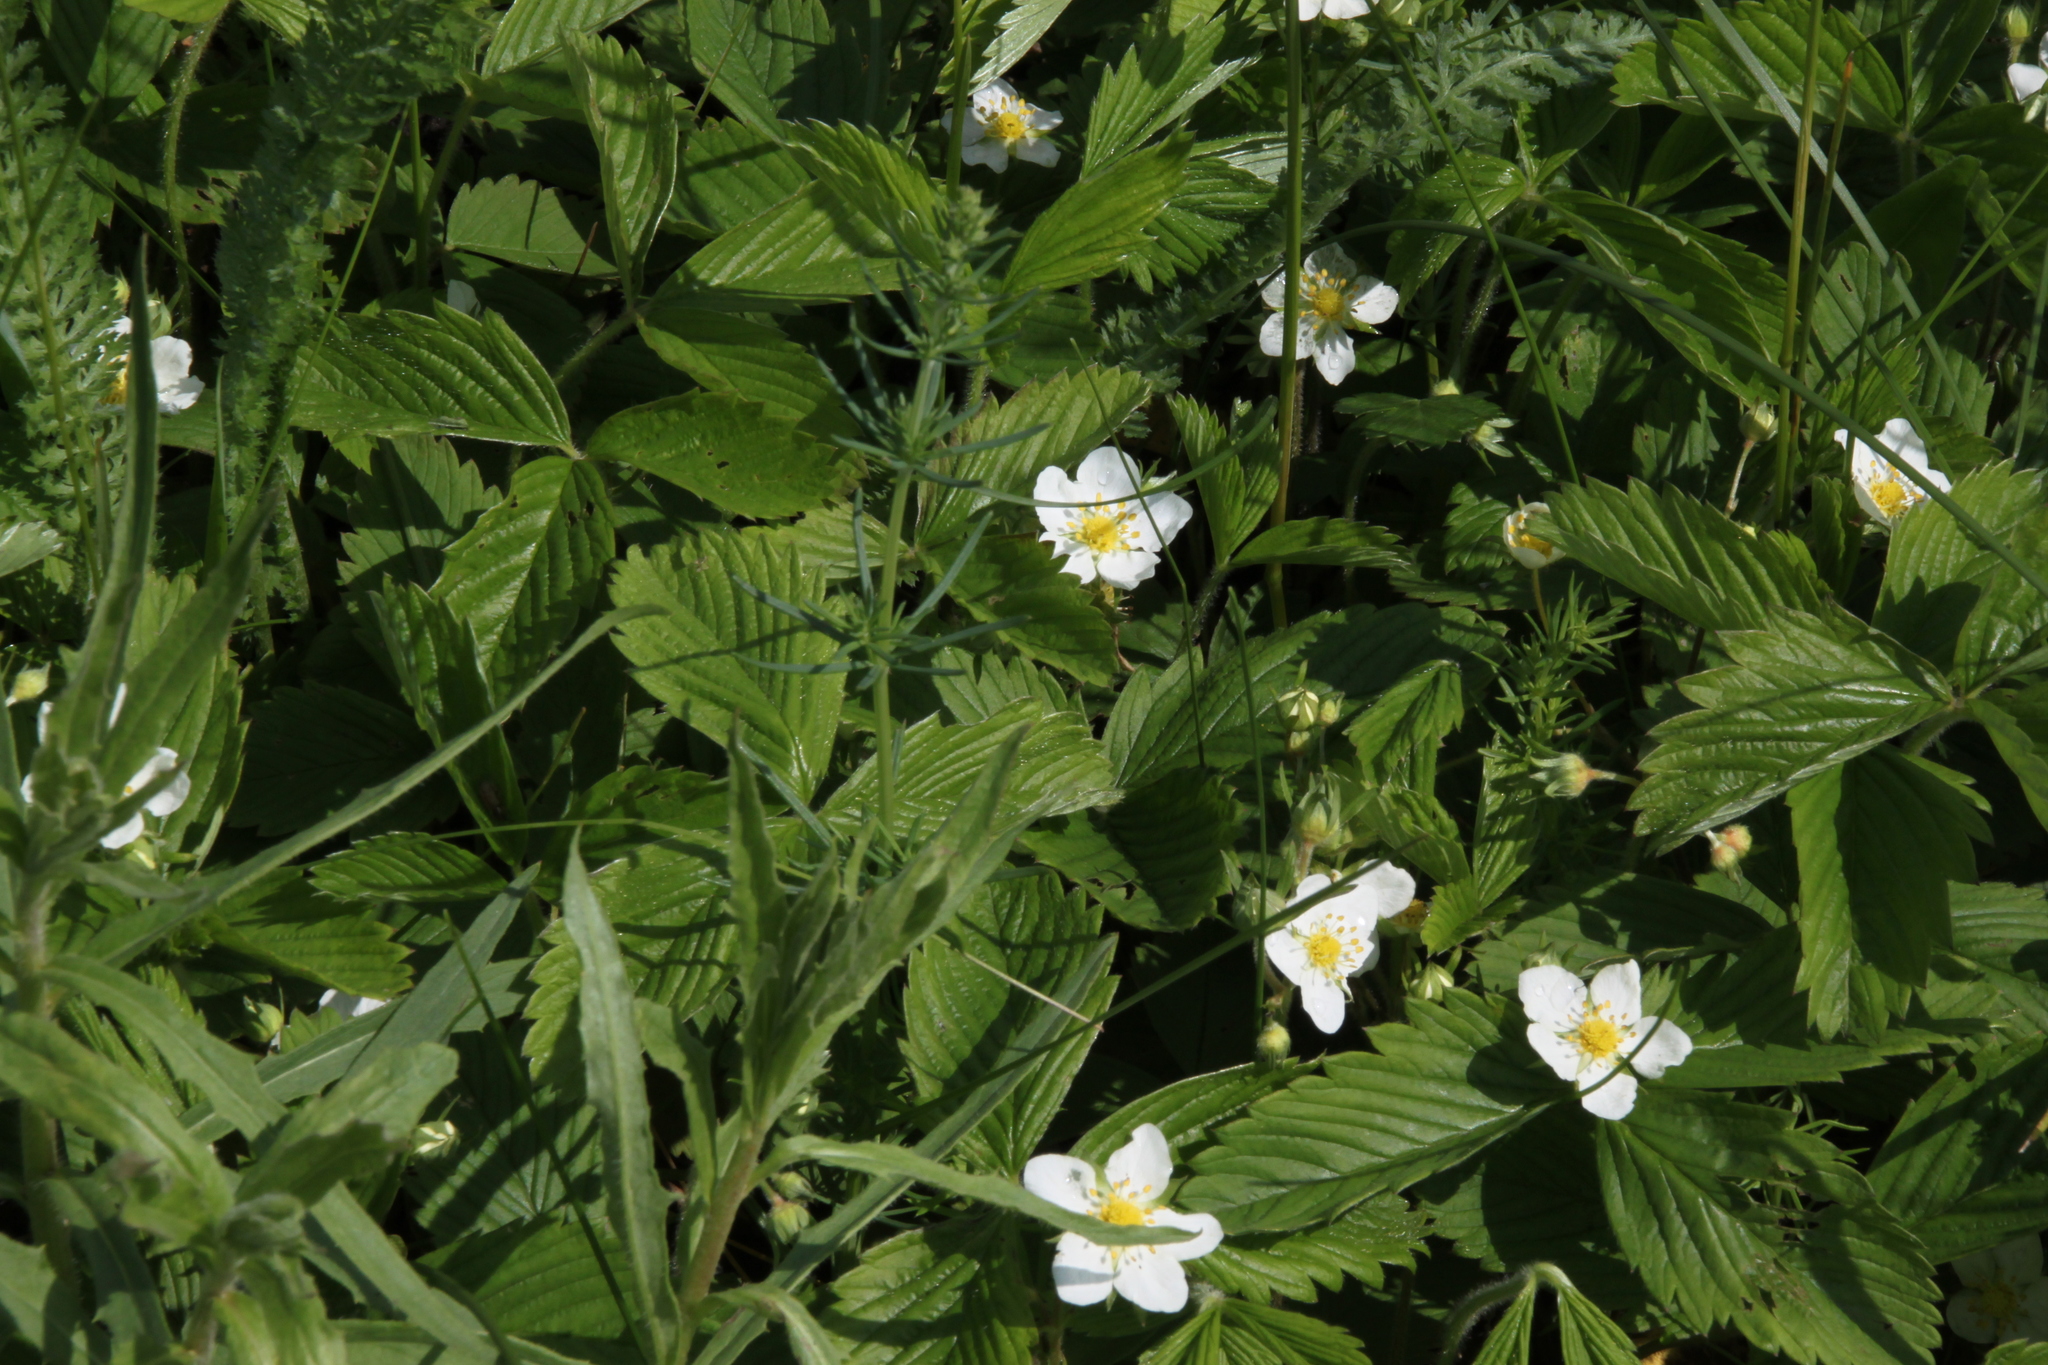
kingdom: Plantae
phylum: Tracheophyta
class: Magnoliopsida
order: Rosales
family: Rosaceae
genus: Fragaria
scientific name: Fragaria viridis
